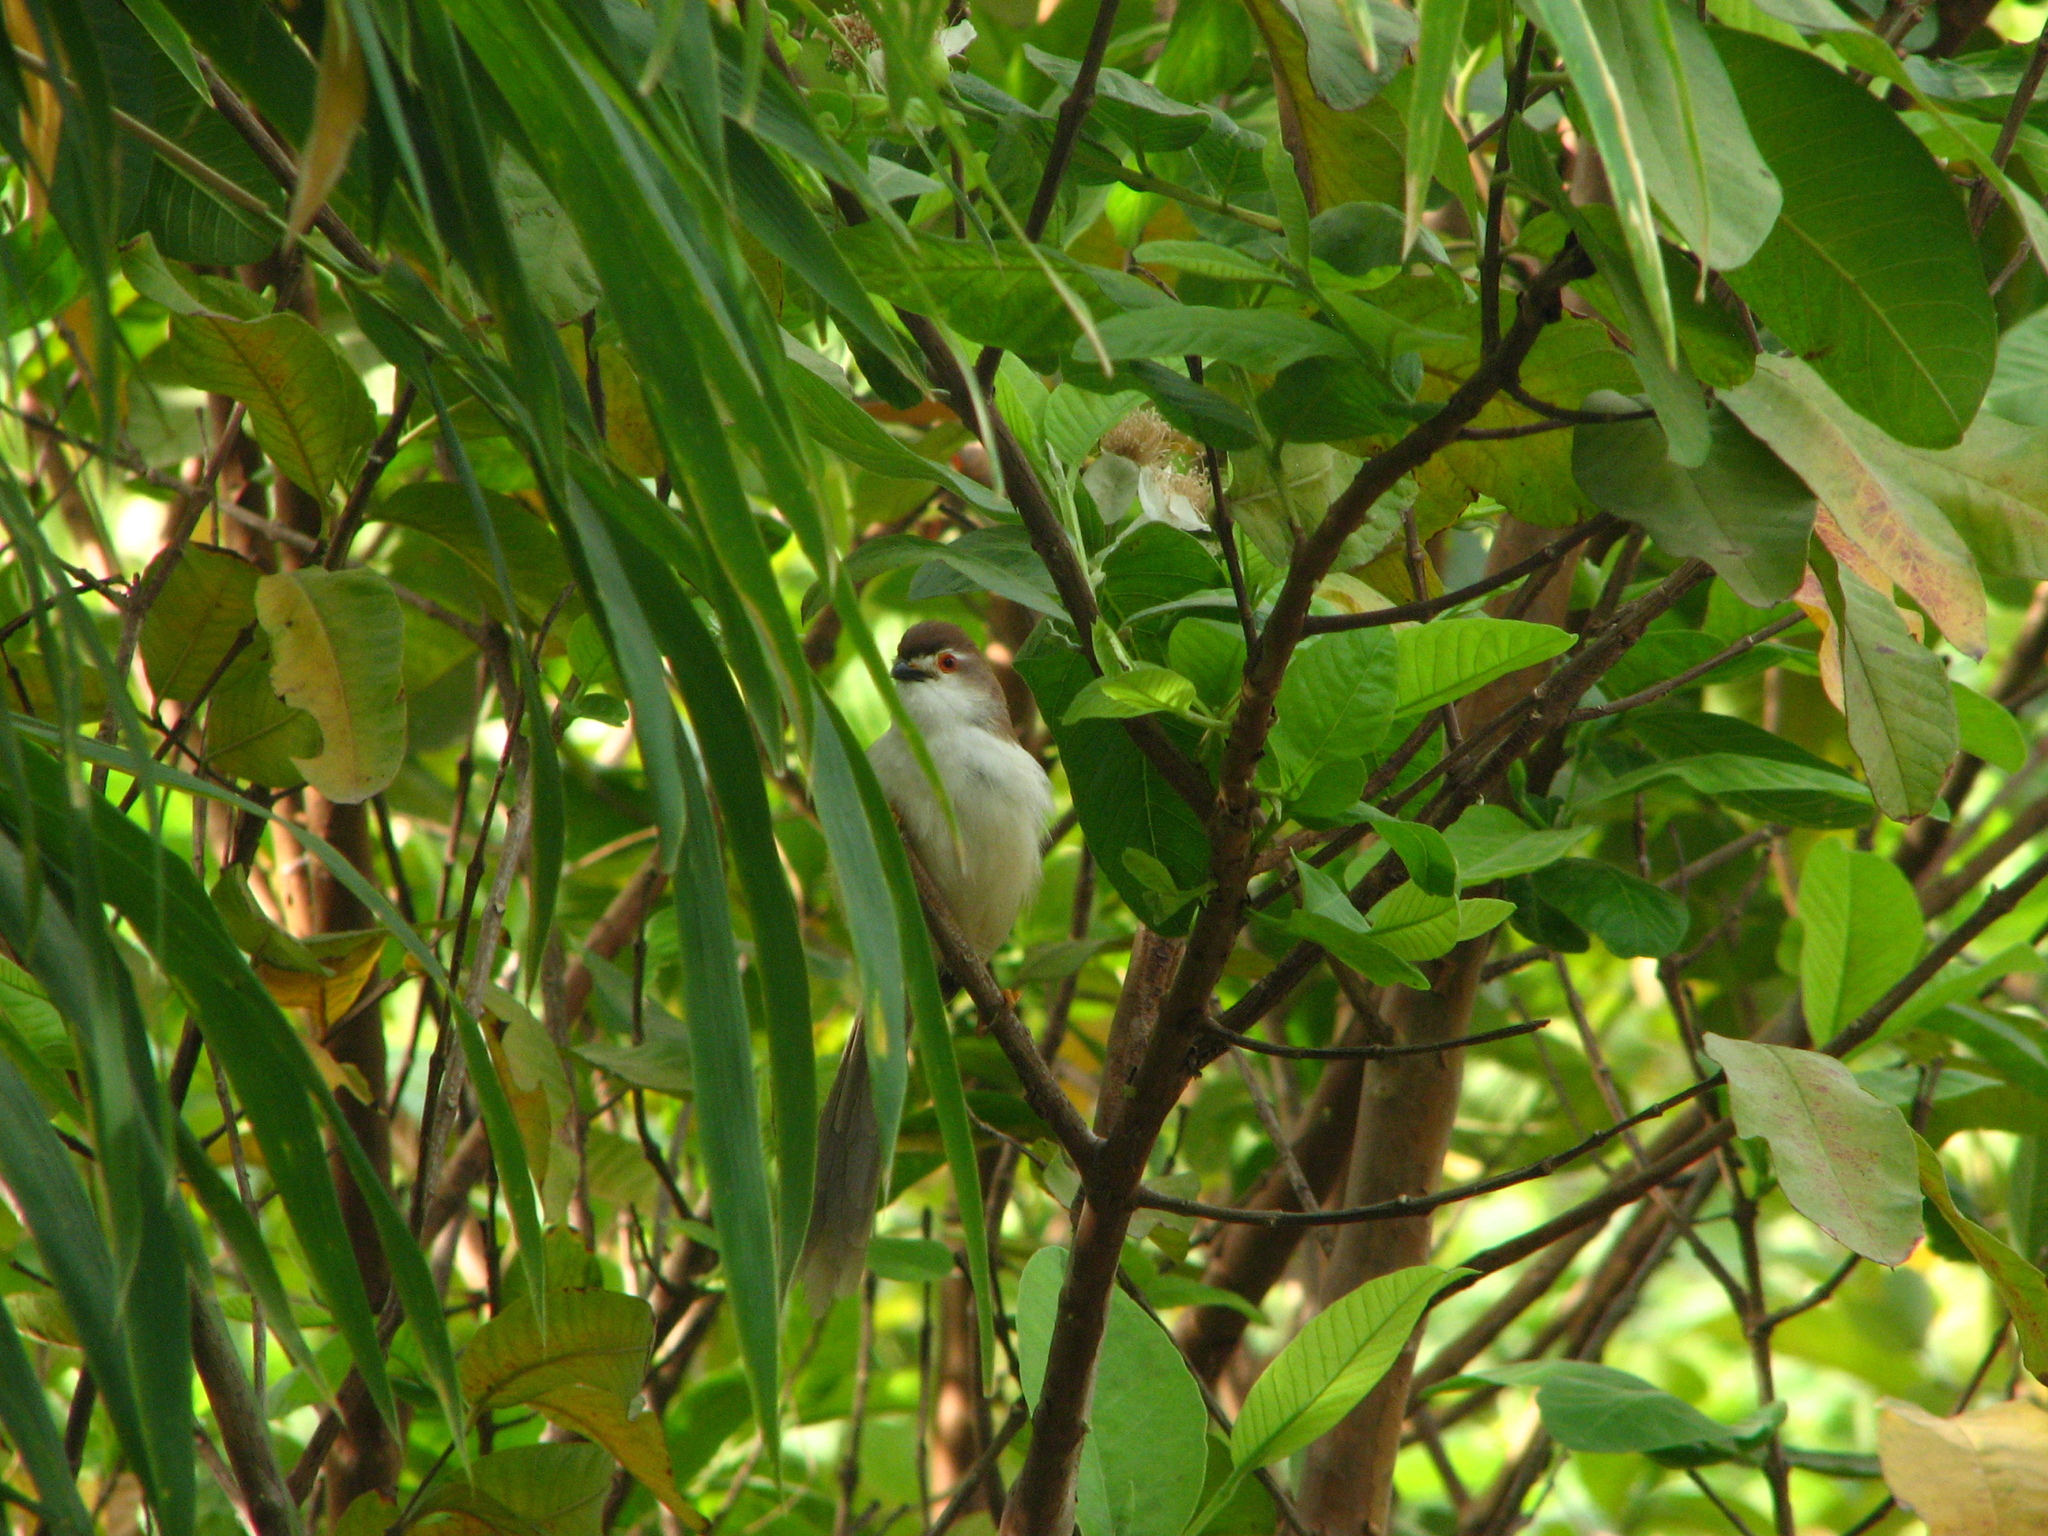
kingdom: Animalia
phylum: Chordata
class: Aves
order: Passeriformes
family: Sylviidae
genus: Chrysomma
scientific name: Chrysomma sinense
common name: Yellow-eyed babbler
